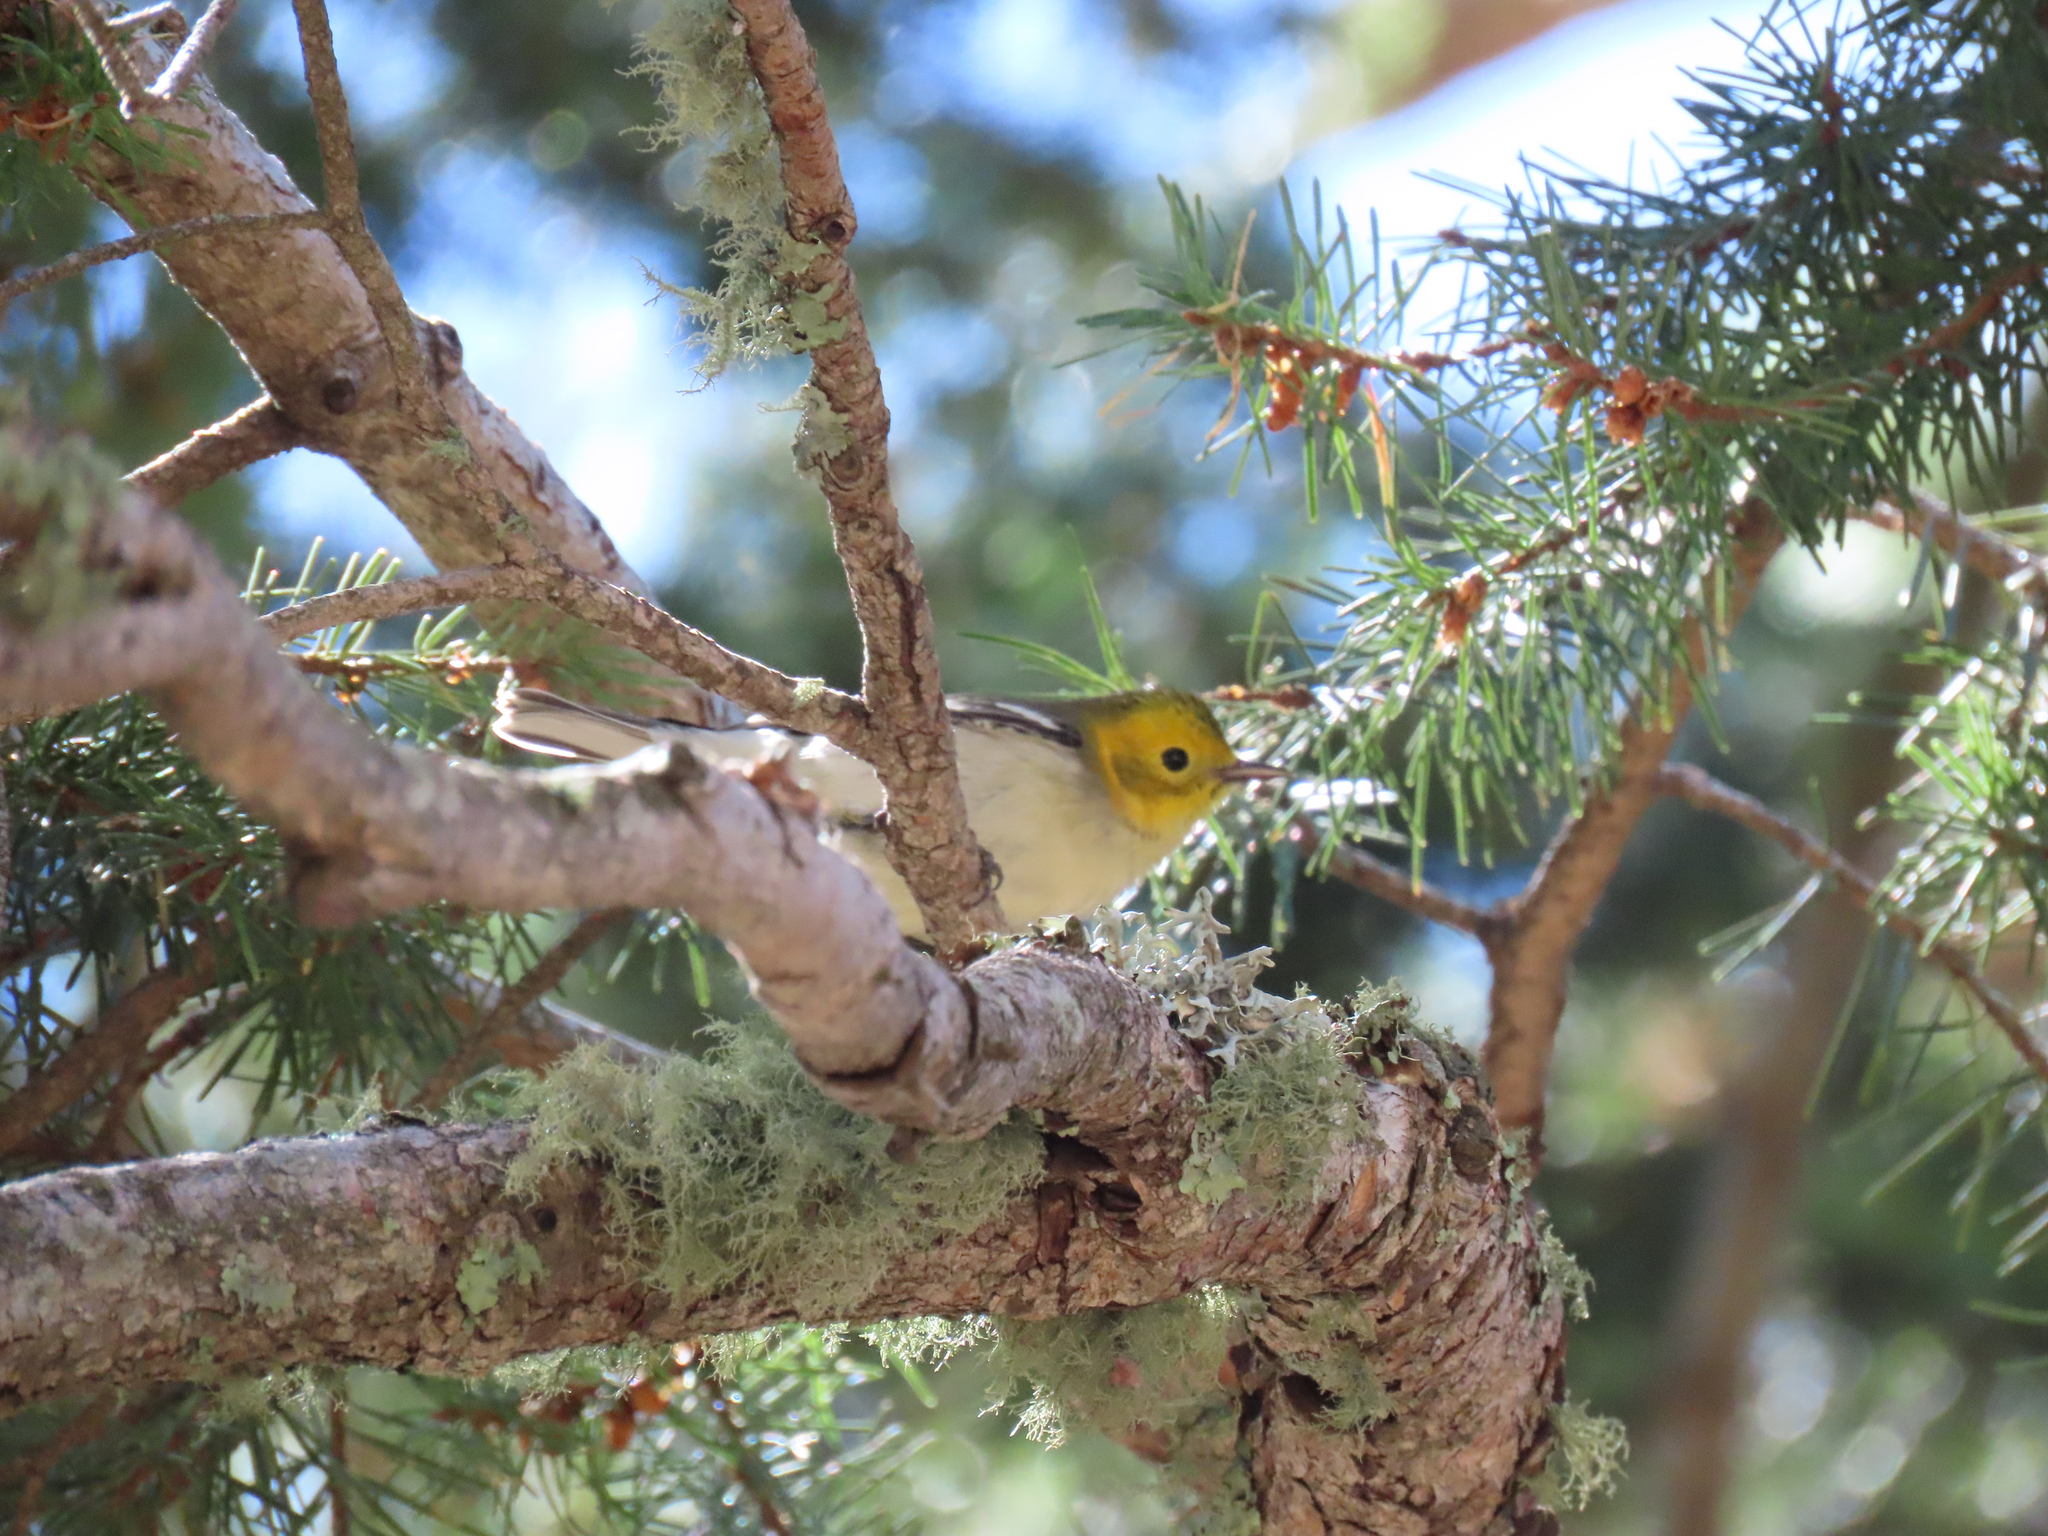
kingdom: Animalia
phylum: Chordata
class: Aves
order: Passeriformes
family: Parulidae
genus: Setophaga
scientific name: Setophaga occidentalis
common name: Hermit warbler
